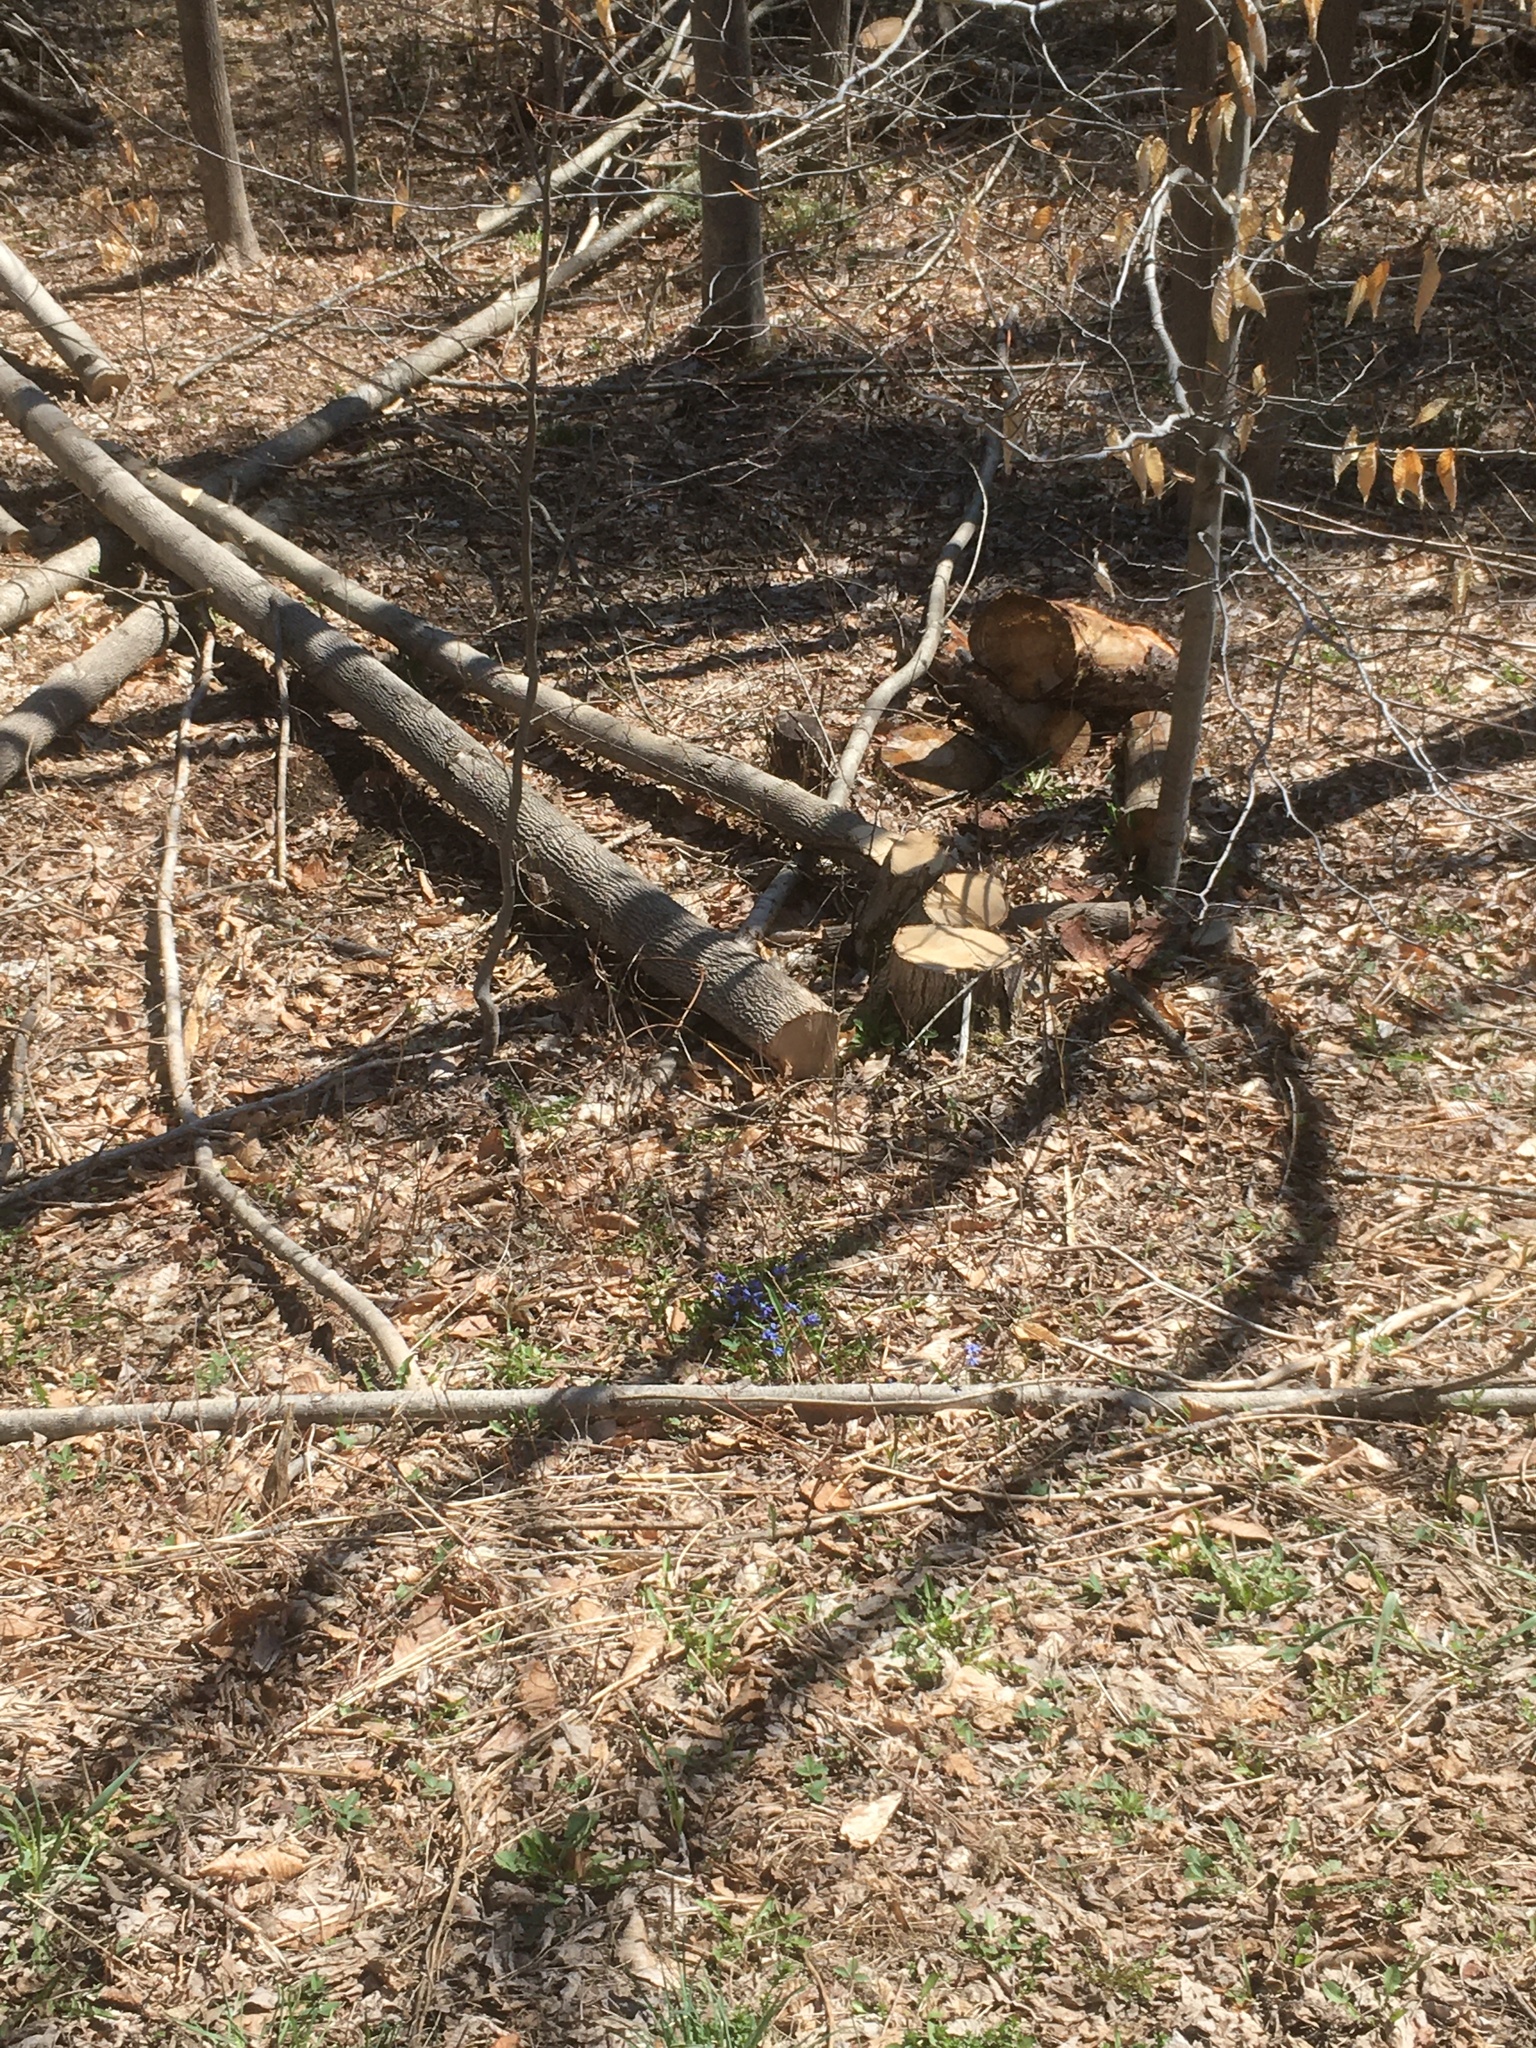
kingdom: Plantae
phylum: Tracheophyta
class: Magnoliopsida
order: Lamiales
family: Oleaceae
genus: Fraxinus
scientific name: Fraxinus americana
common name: White ash
